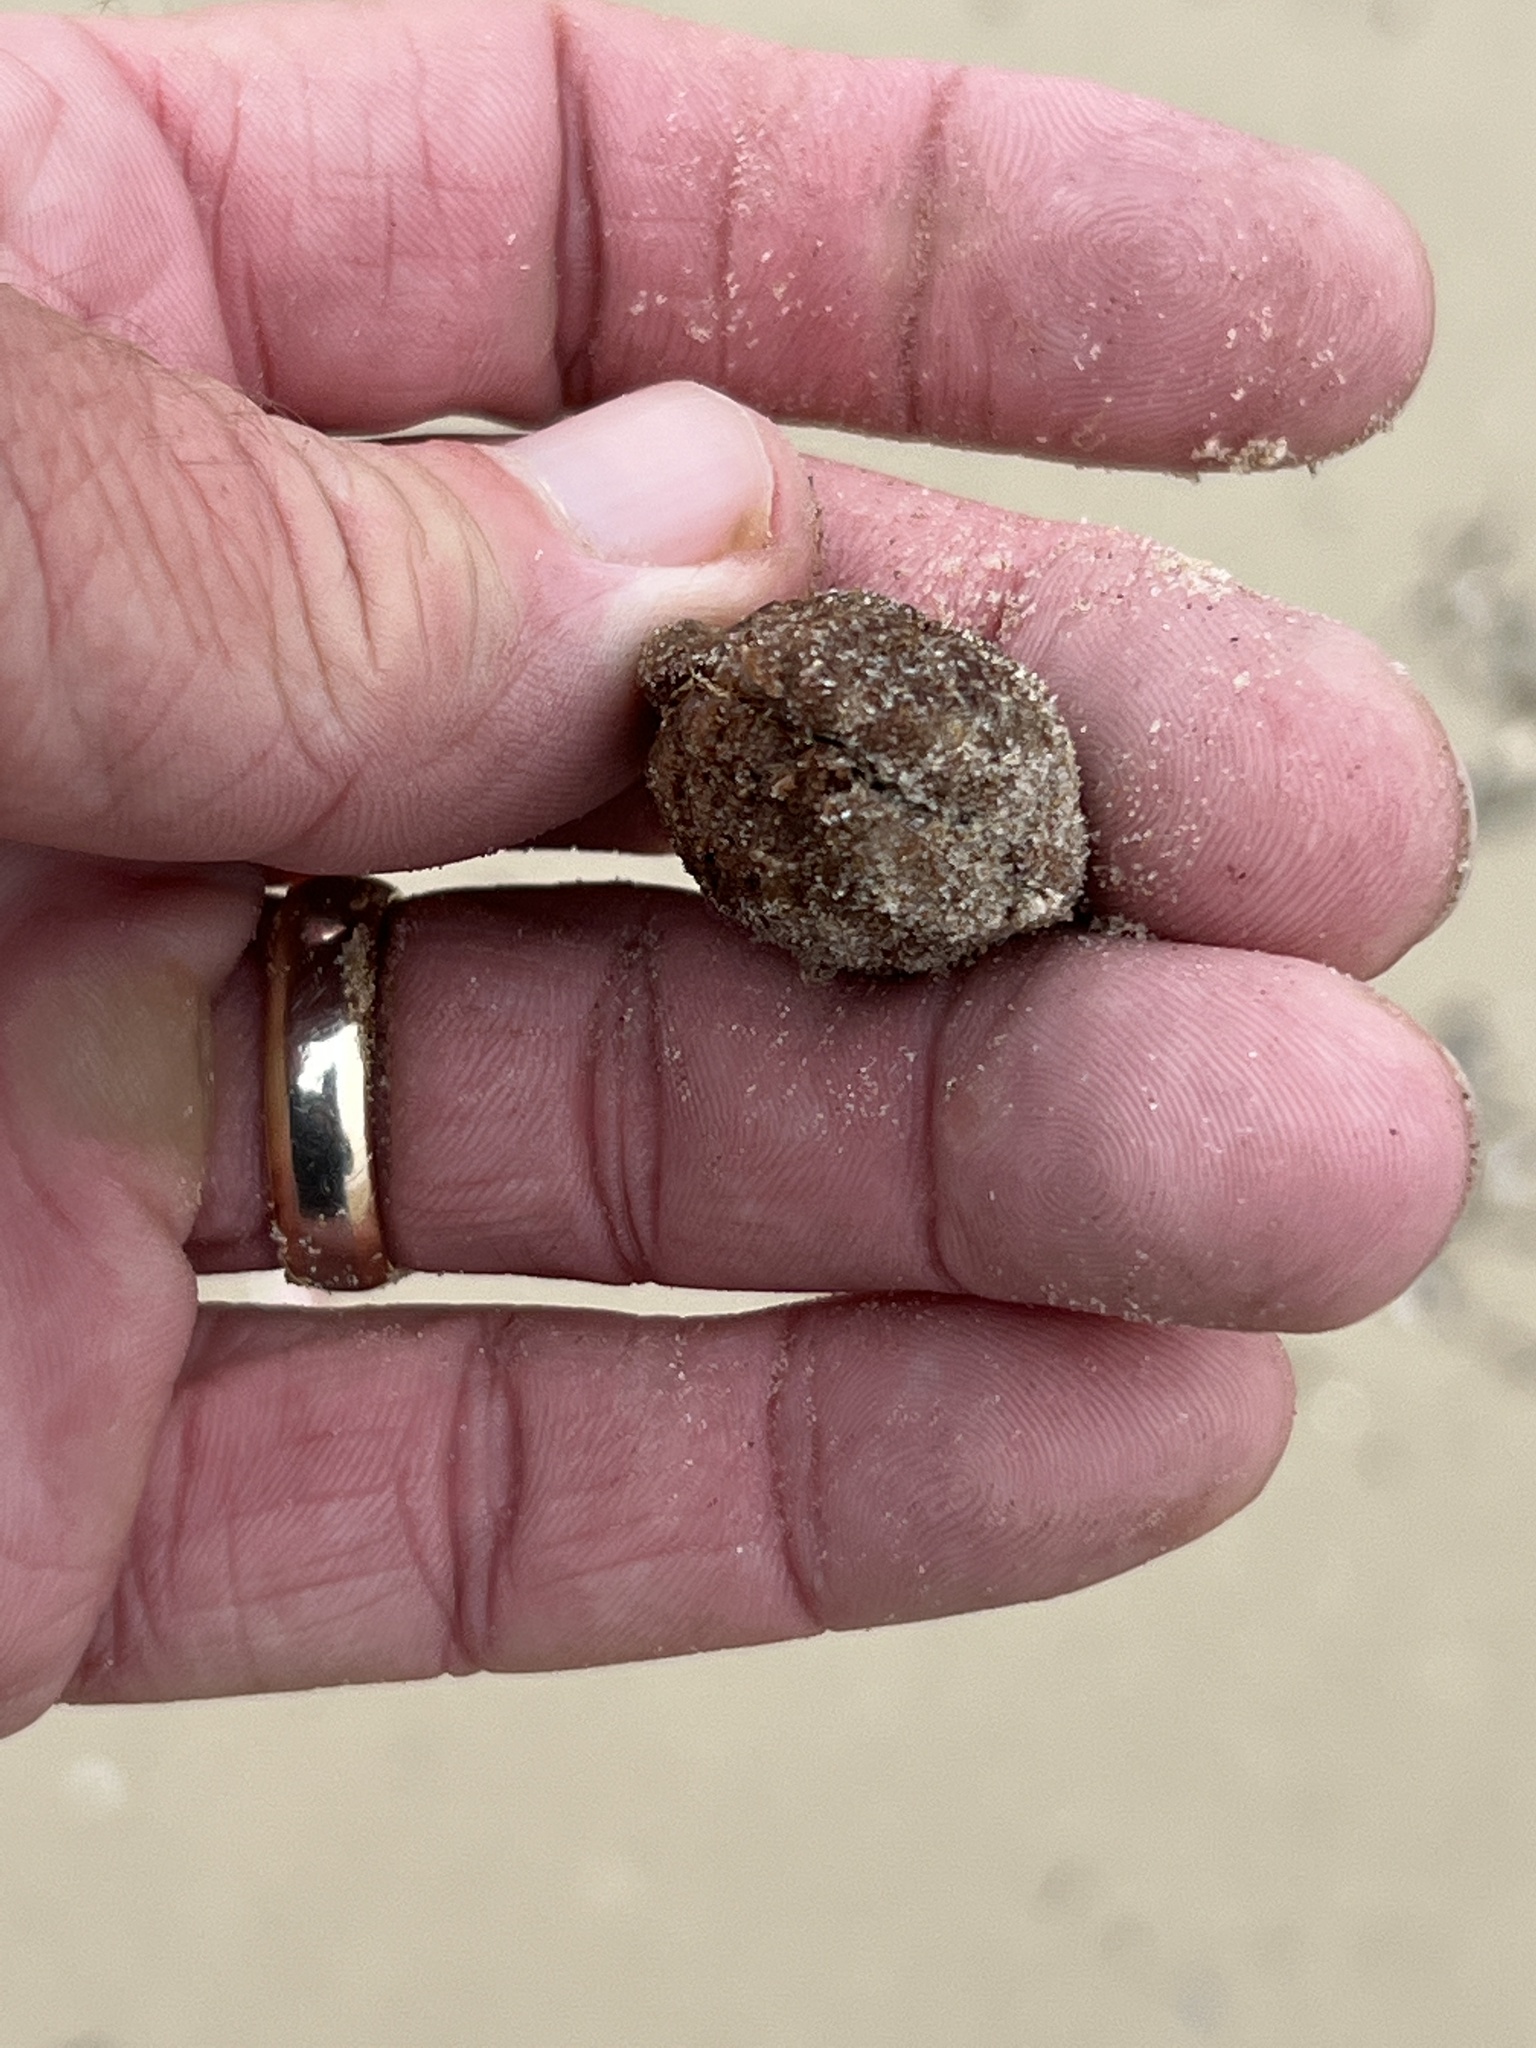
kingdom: Plantae
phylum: Tracheophyta
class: Magnoliopsida
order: Myrtales
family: Combretaceae
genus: Terminalia
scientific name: Terminalia catappa
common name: Tropical almond
